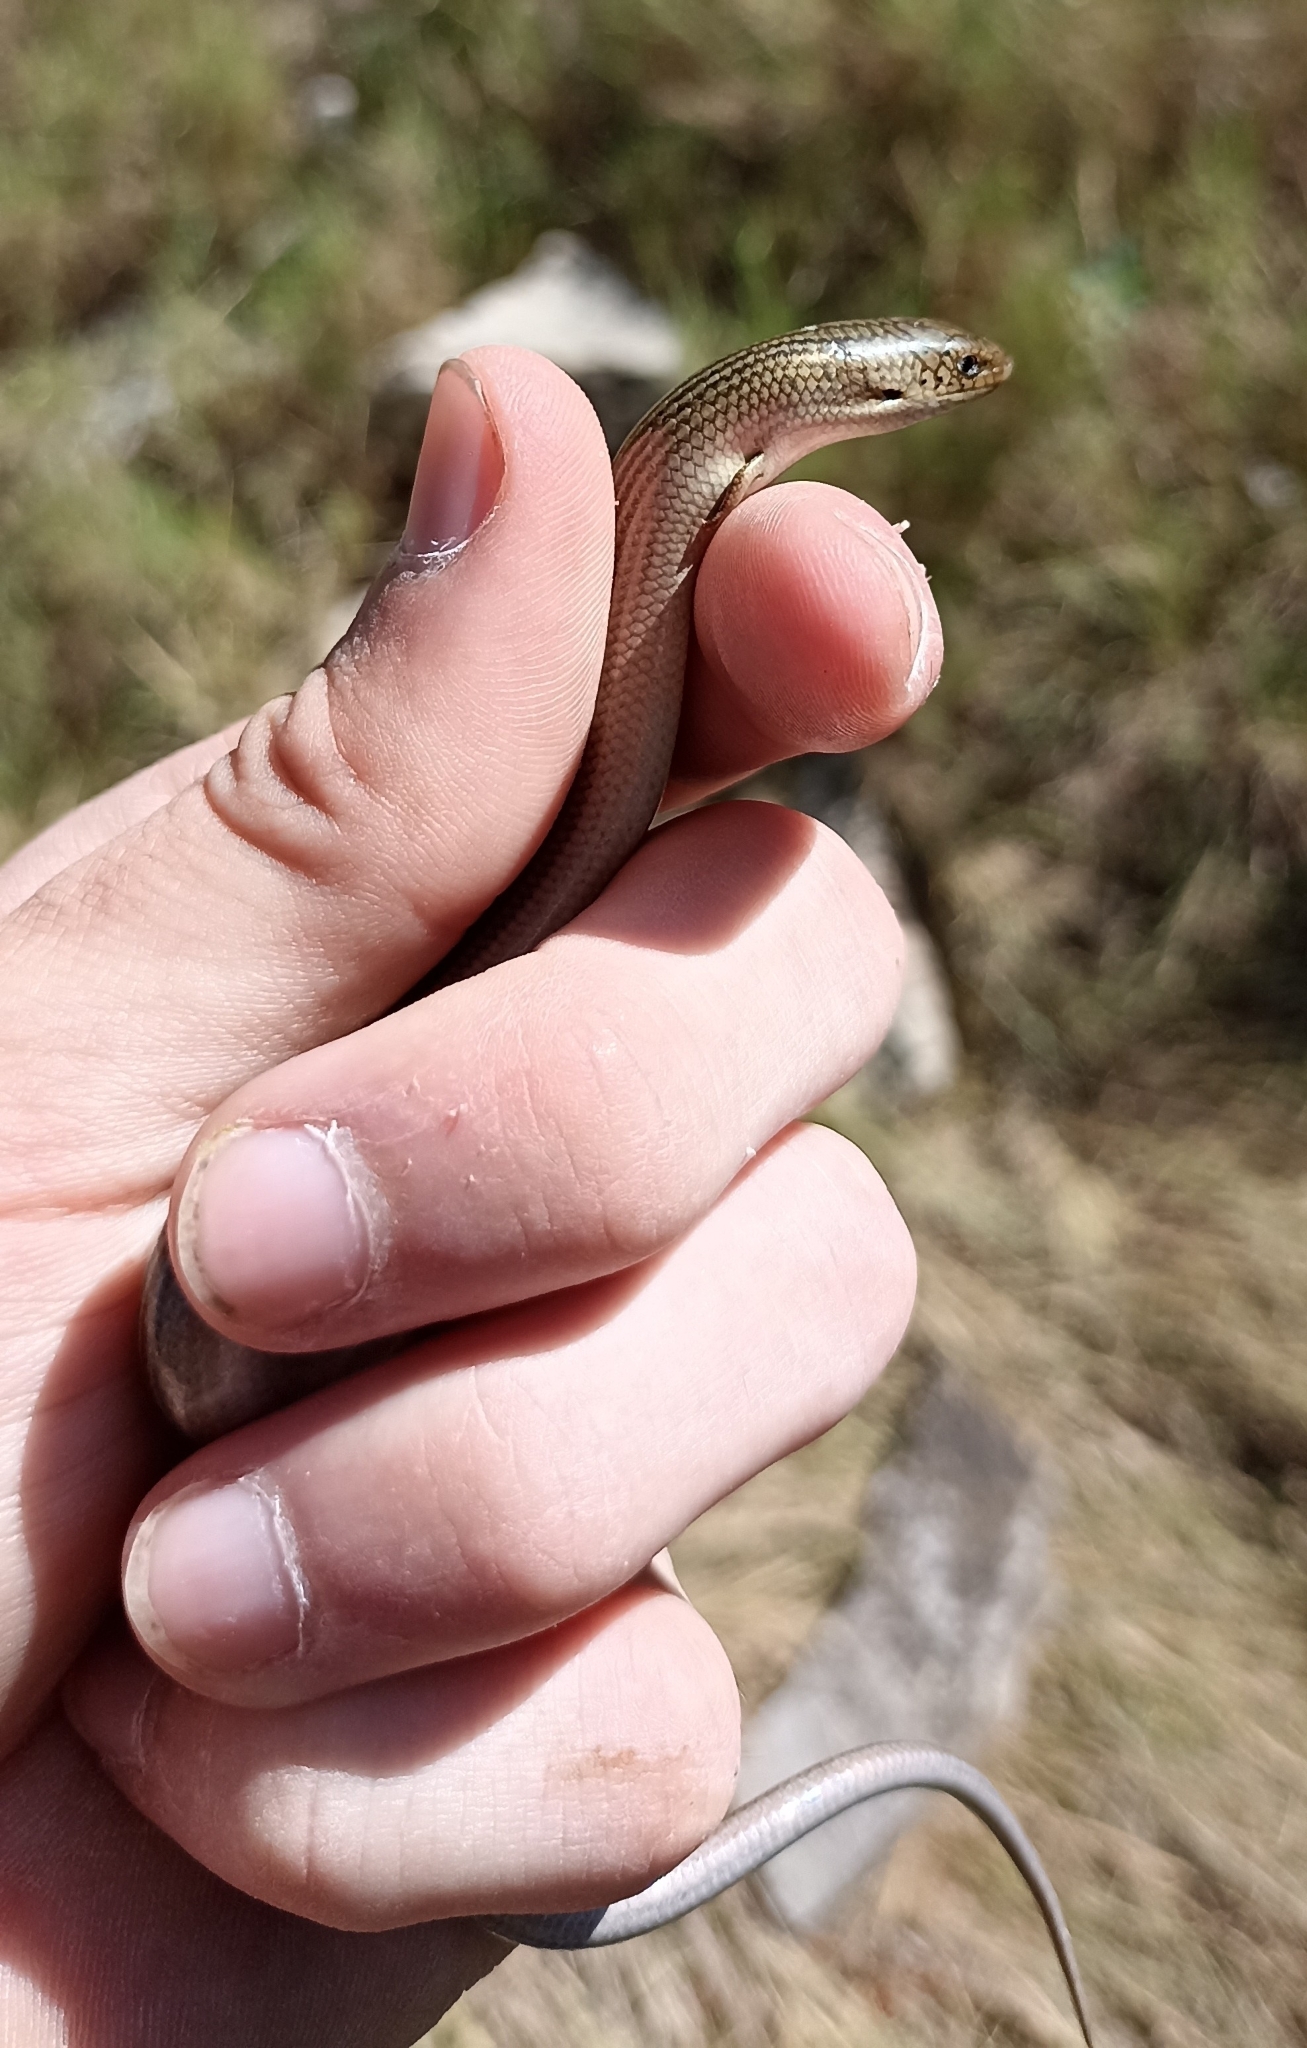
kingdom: Animalia
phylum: Chordata
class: Squamata
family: Scincidae
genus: Chalcides
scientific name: Chalcides striatus
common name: Western (or iberian) three-toed skink
